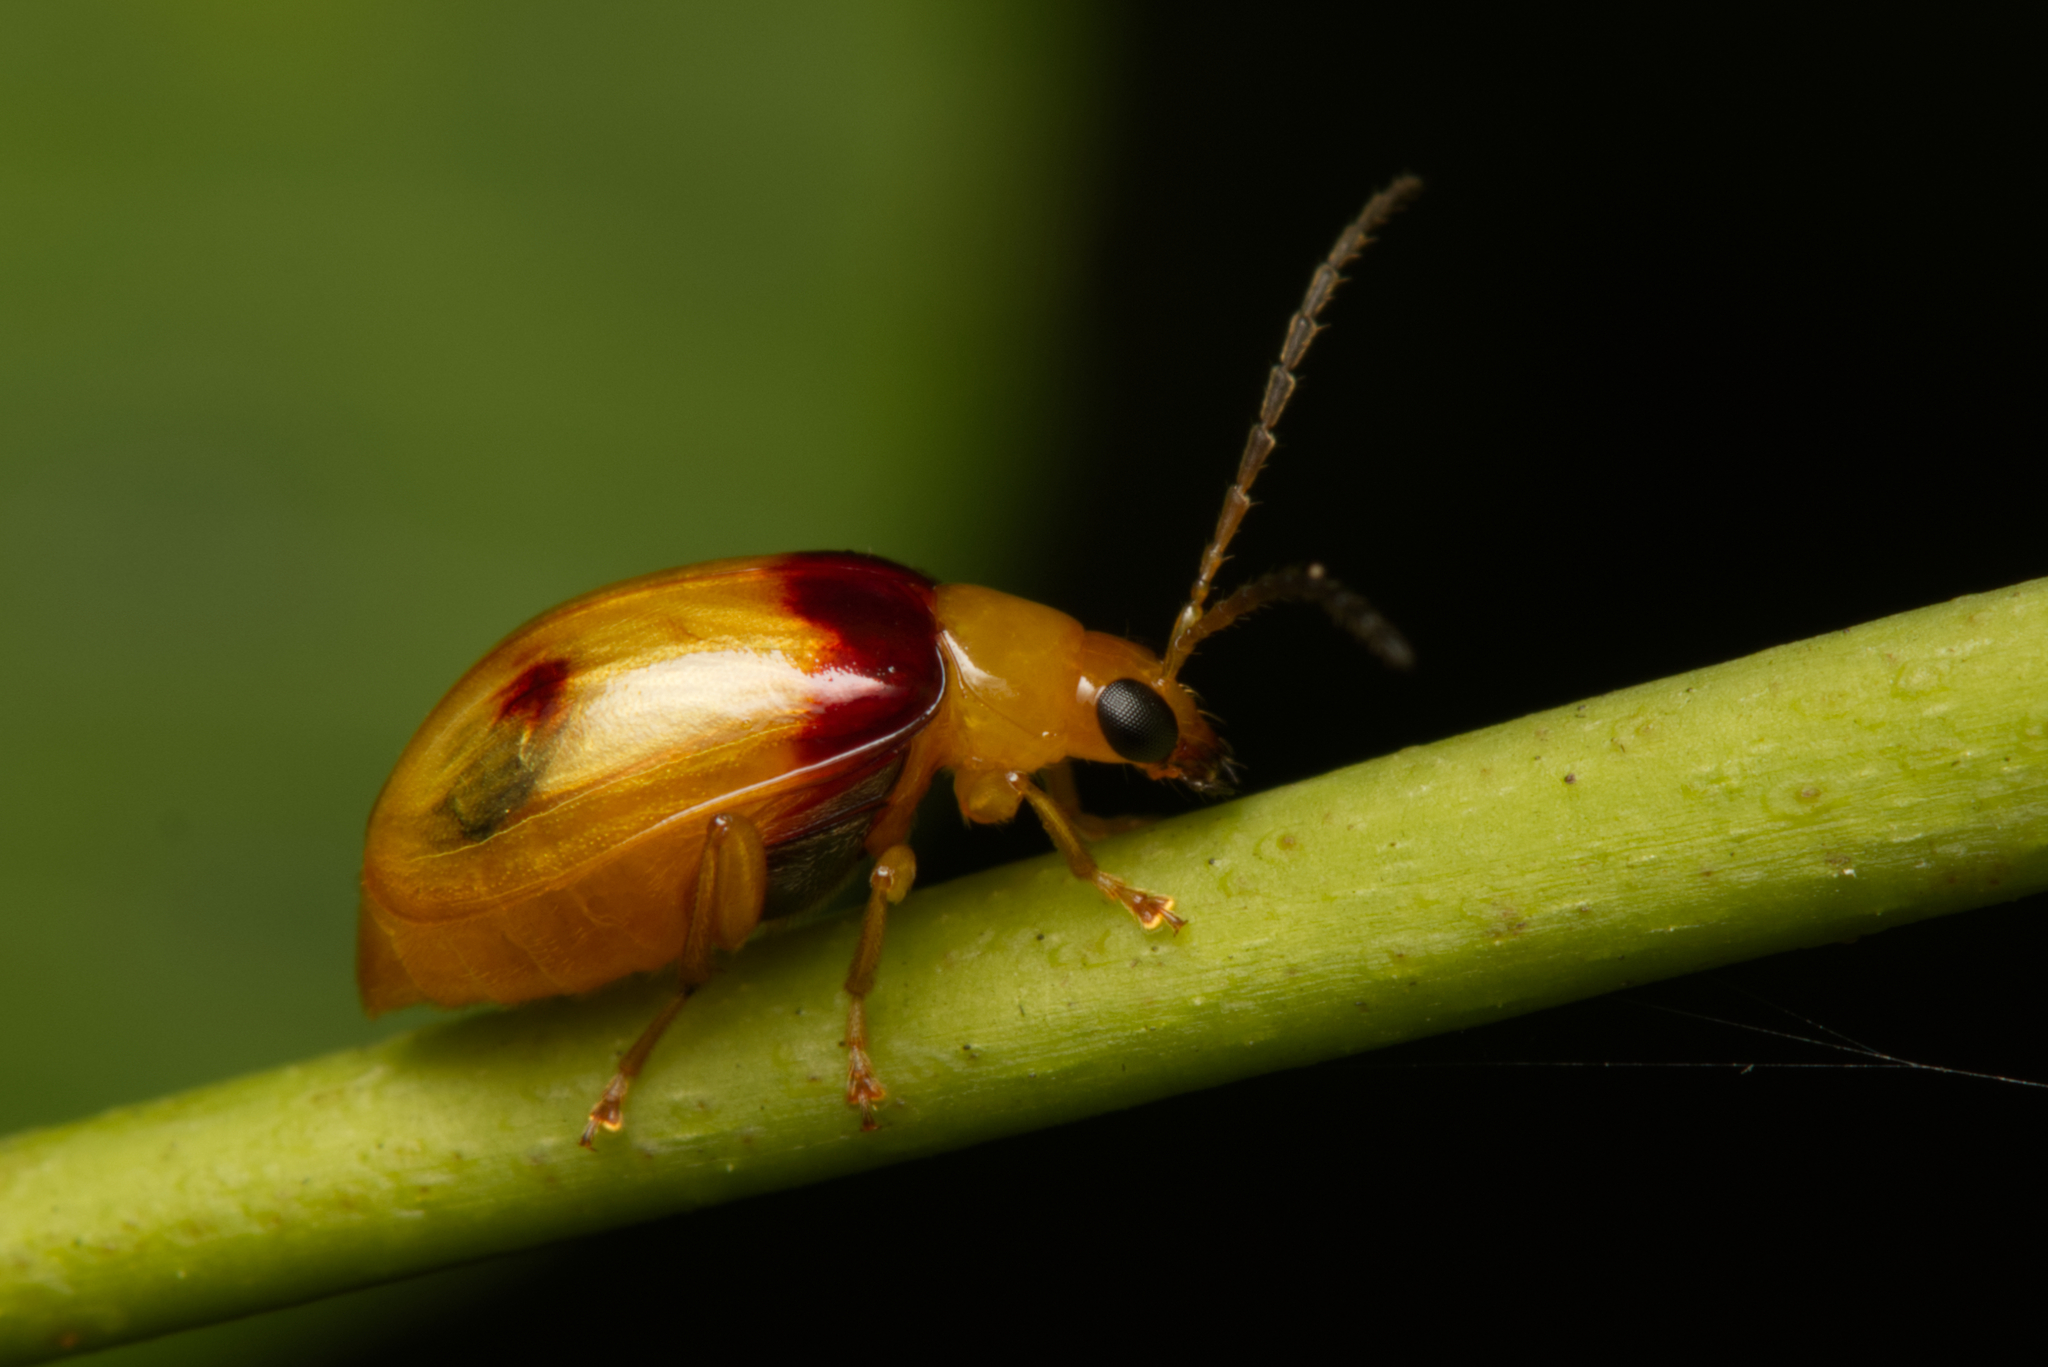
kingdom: Animalia
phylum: Arthropoda
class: Insecta
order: Coleoptera
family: Chrysomelidae
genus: Monolepta
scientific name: Monolepta
